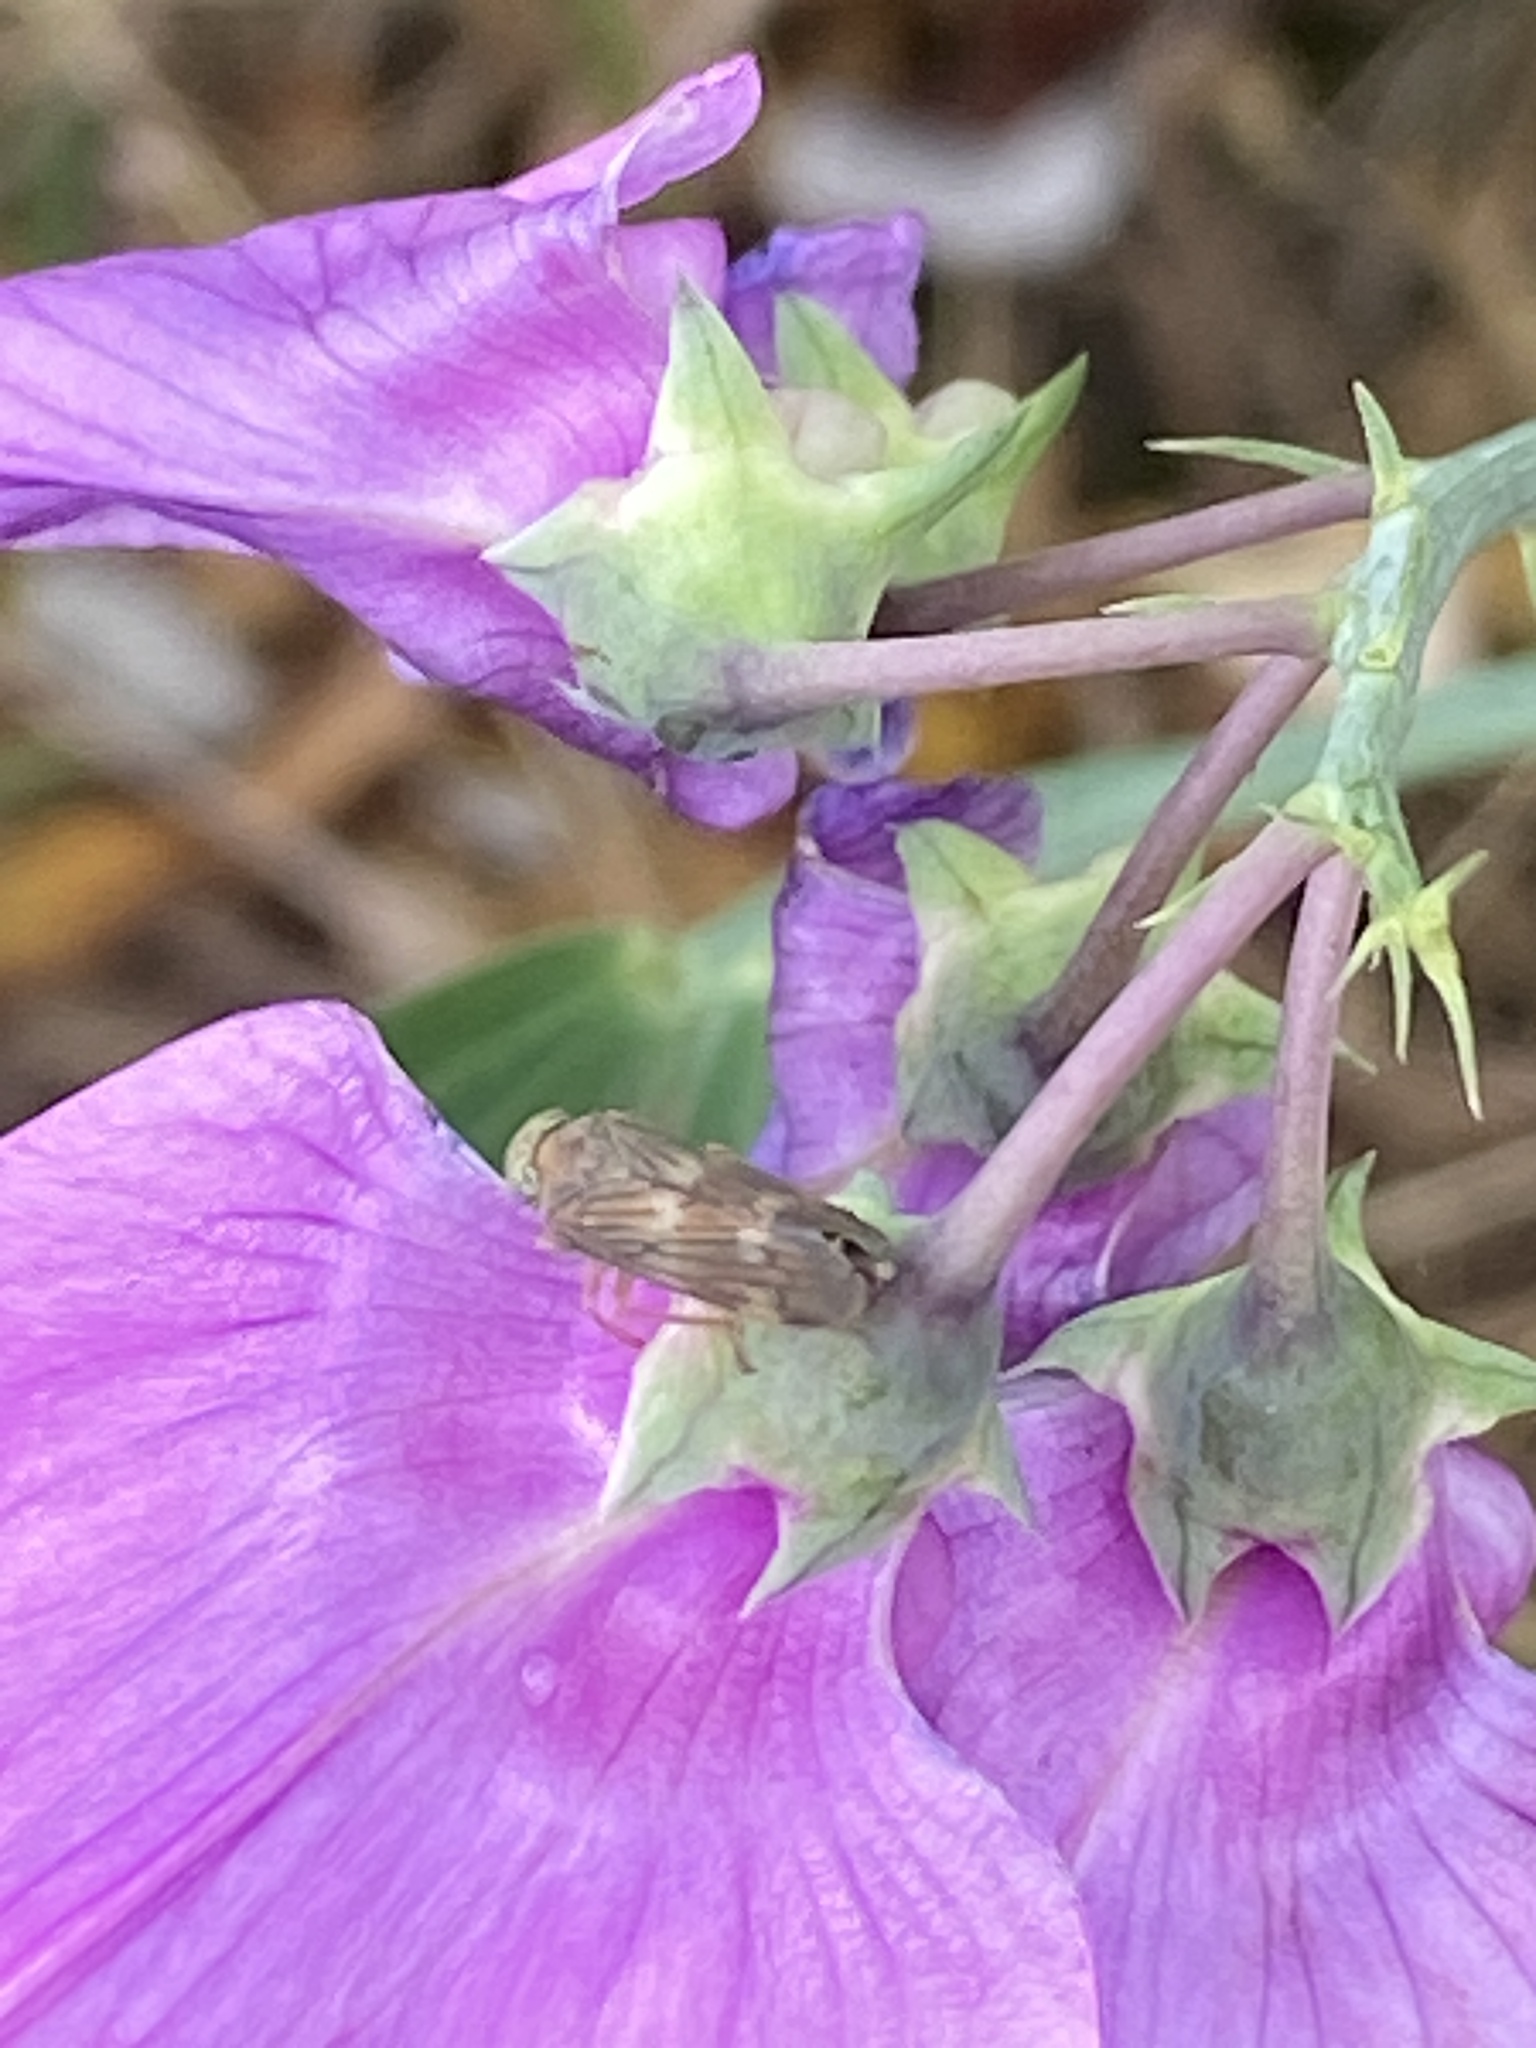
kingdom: Animalia
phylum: Arthropoda
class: Insecta
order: Hemiptera
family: Cicadellidae
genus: Jikradia
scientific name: Jikradia olitoria
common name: Coppery leafhopper
